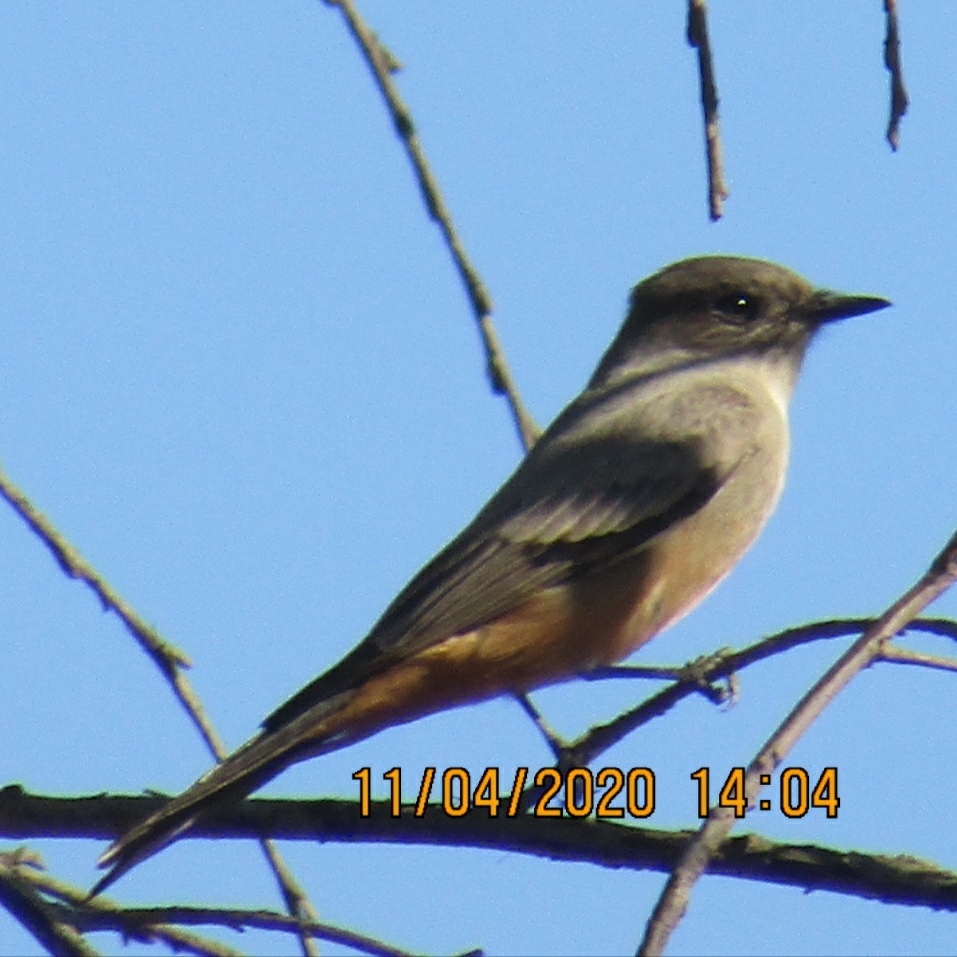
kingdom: Animalia
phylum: Chordata
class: Aves
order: Passeriformes
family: Tyrannidae
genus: Sayornis
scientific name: Sayornis saya
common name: Say's phoebe
